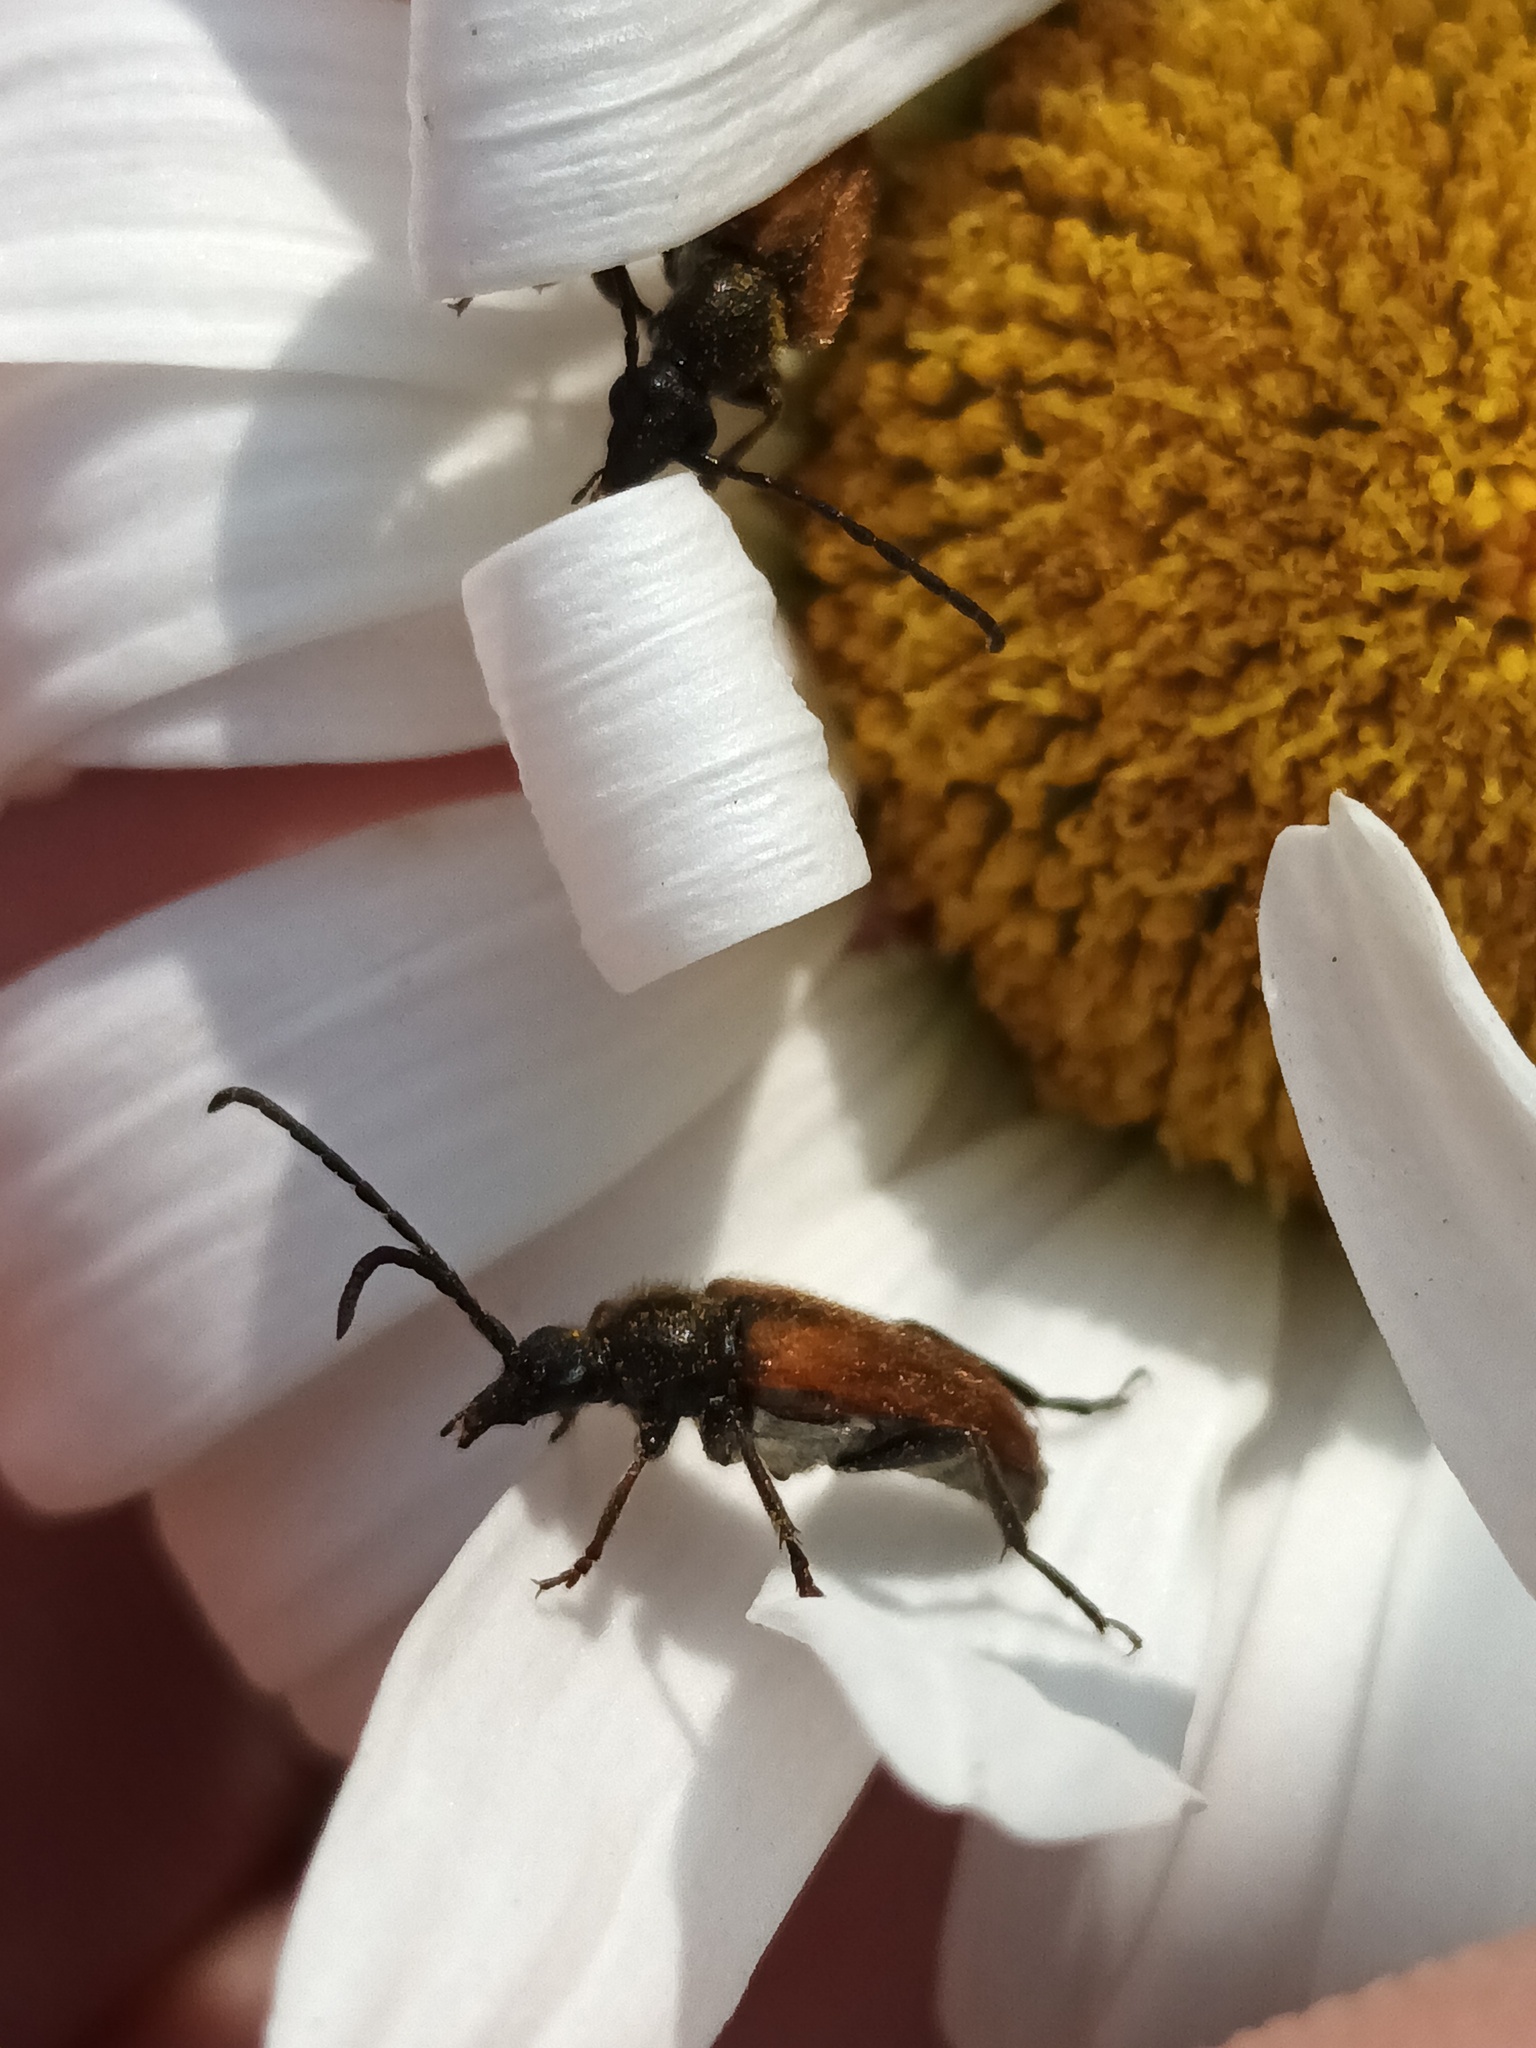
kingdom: Animalia
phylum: Arthropoda
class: Insecta
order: Coleoptera
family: Cerambycidae
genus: Pseudovadonia
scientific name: Pseudovadonia livida
